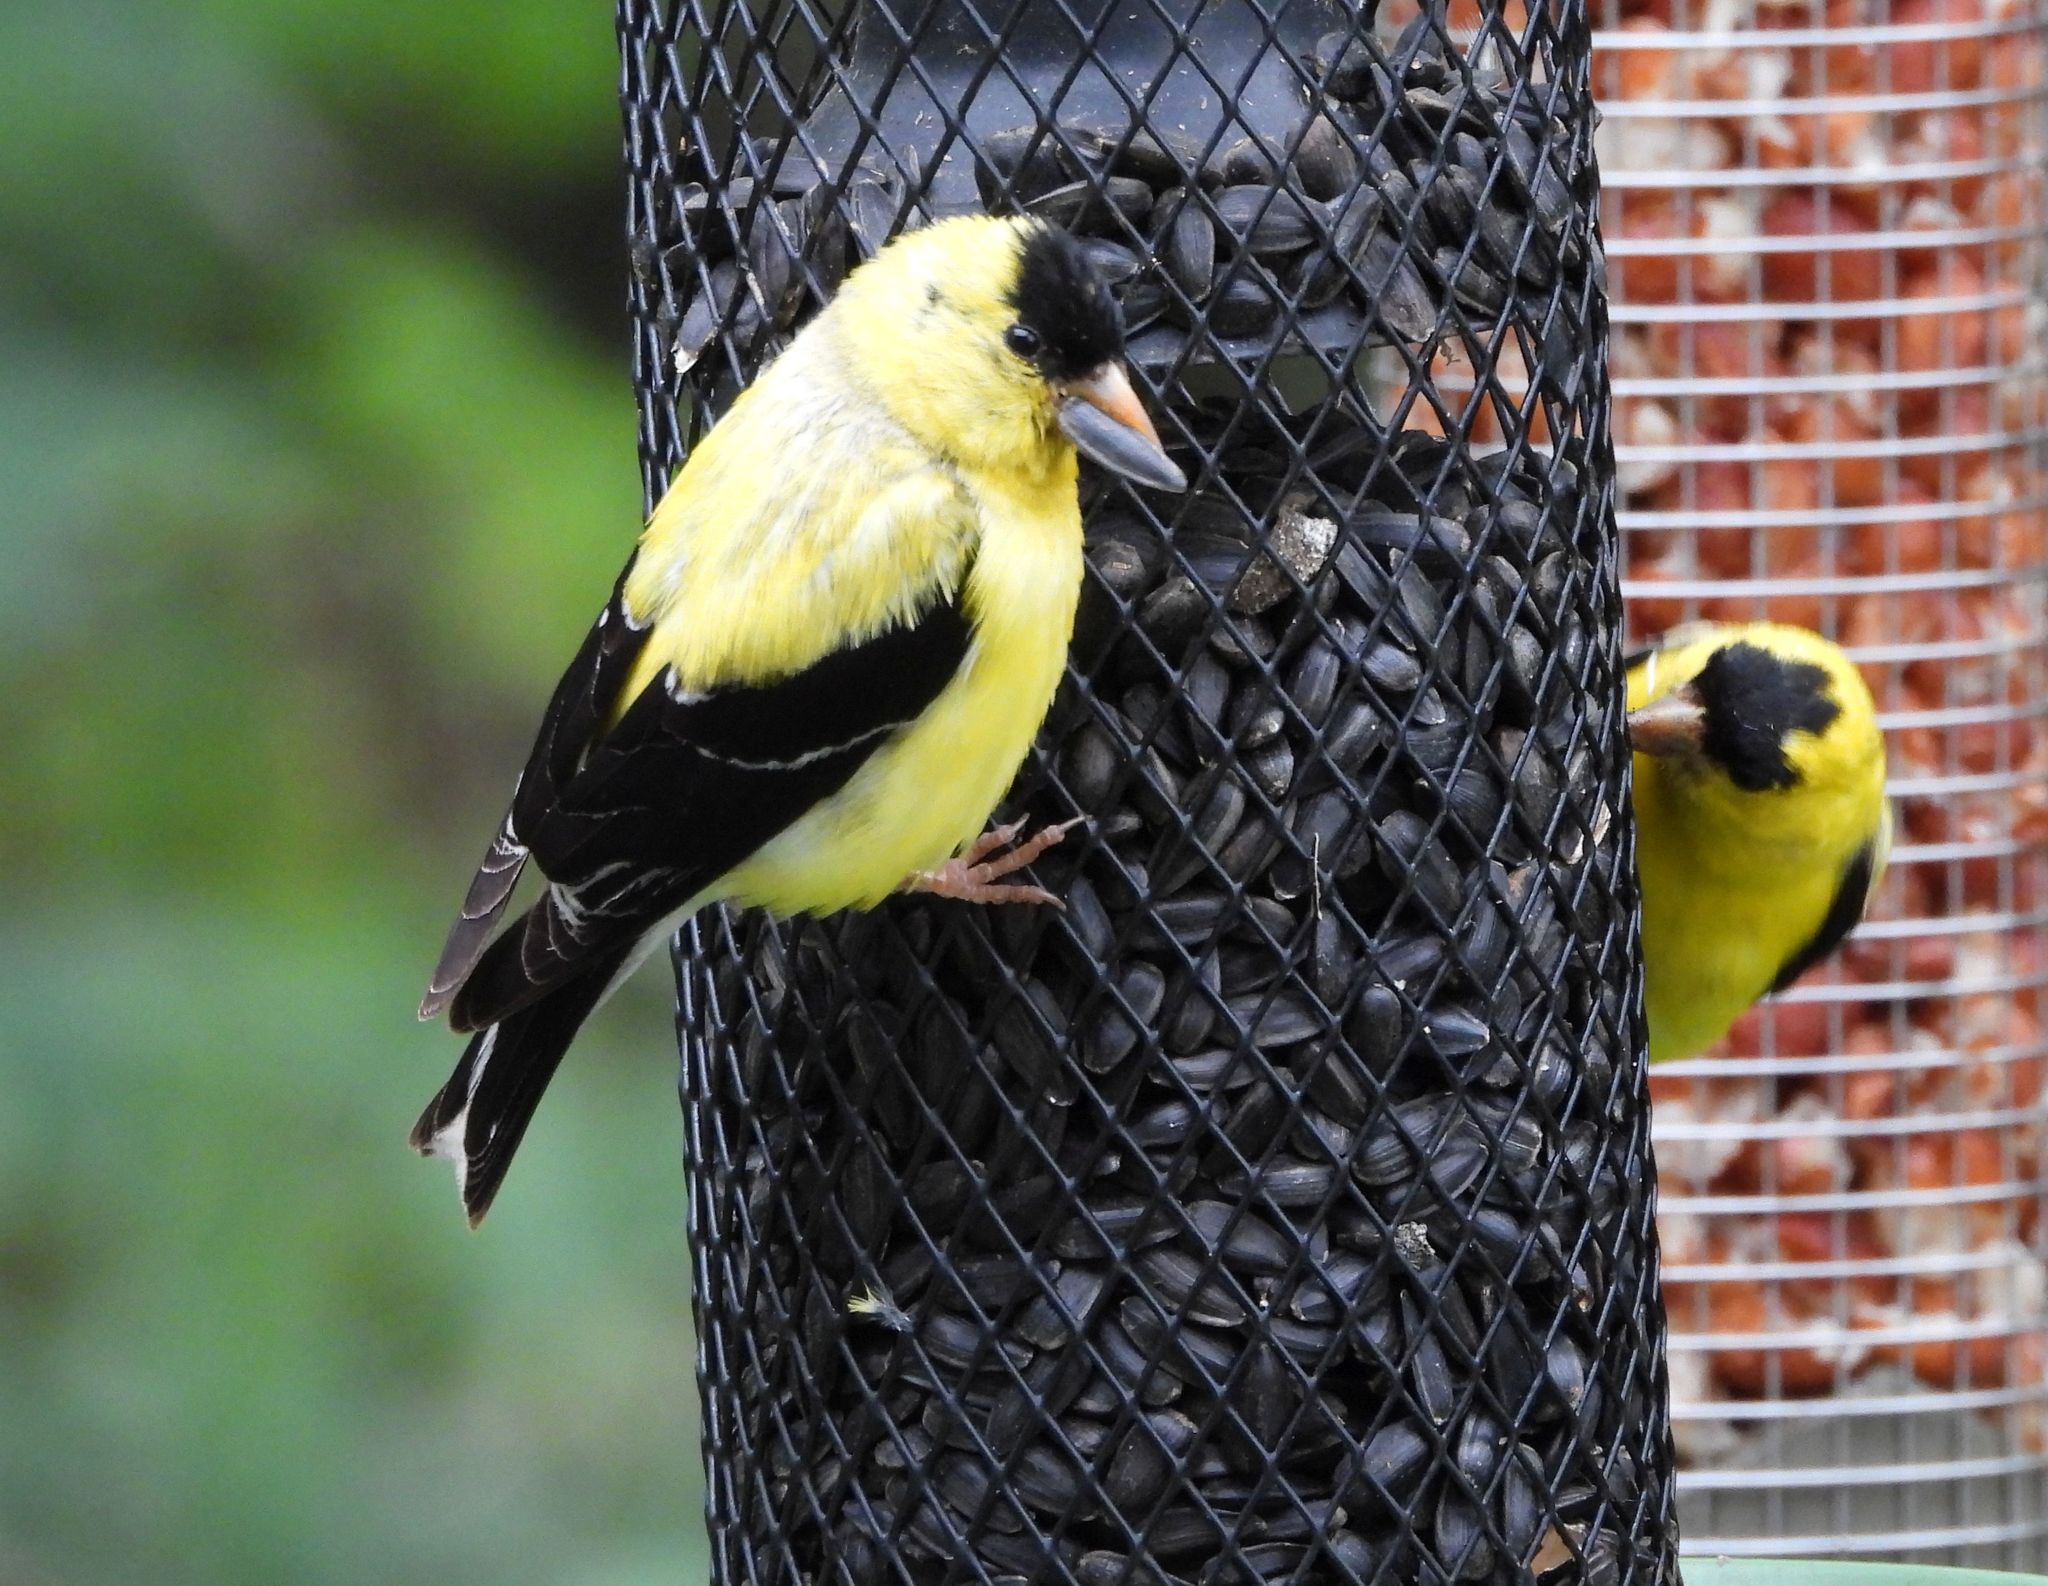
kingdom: Animalia
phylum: Chordata
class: Aves
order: Passeriformes
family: Fringillidae
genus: Spinus
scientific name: Spinus tristis
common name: American goldfinch
